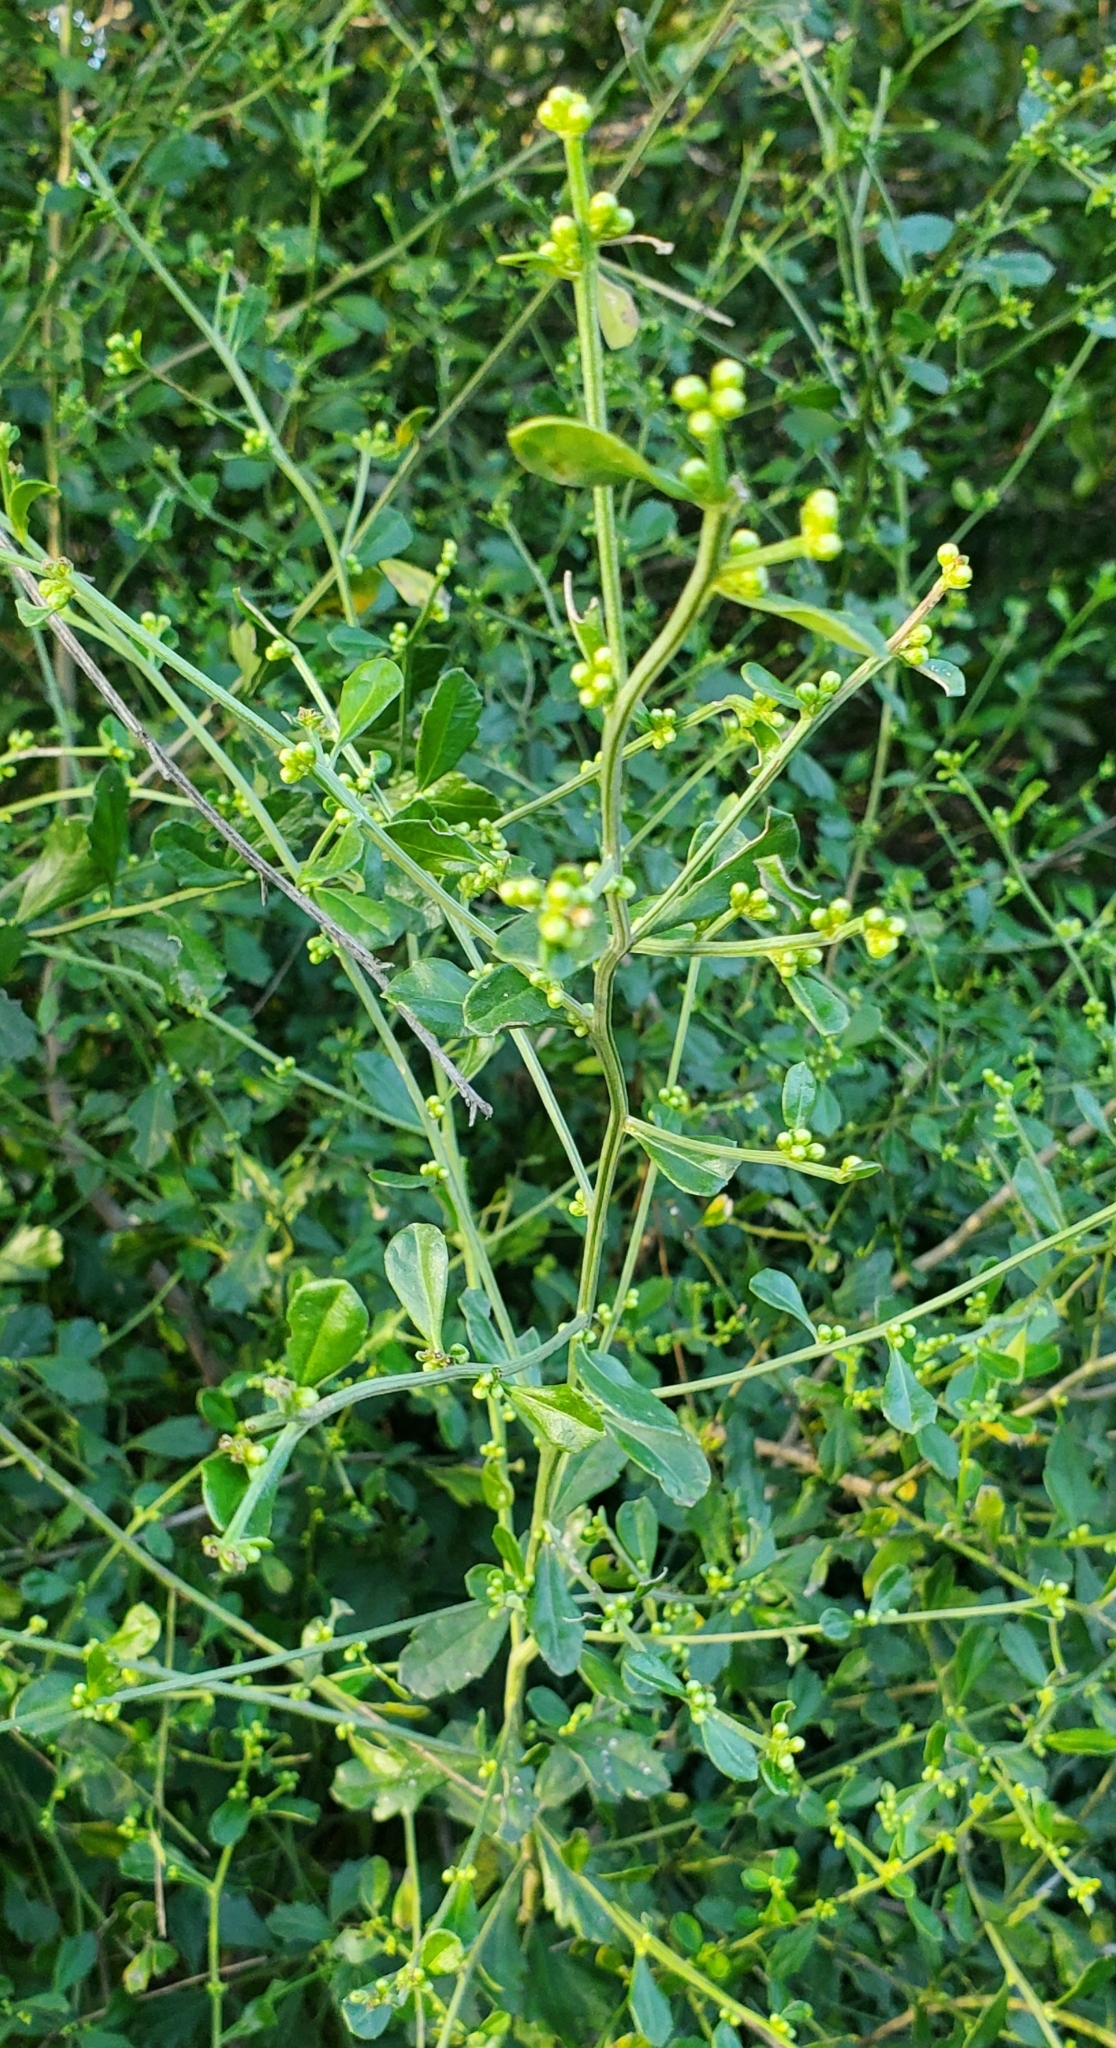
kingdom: Plantae
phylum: Tracheophyta
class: Magnoliopsida
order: Asterales
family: Asteraceae
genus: Baccharis
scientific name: Baccharis glomeruliflora
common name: Silverling groundsel bush
